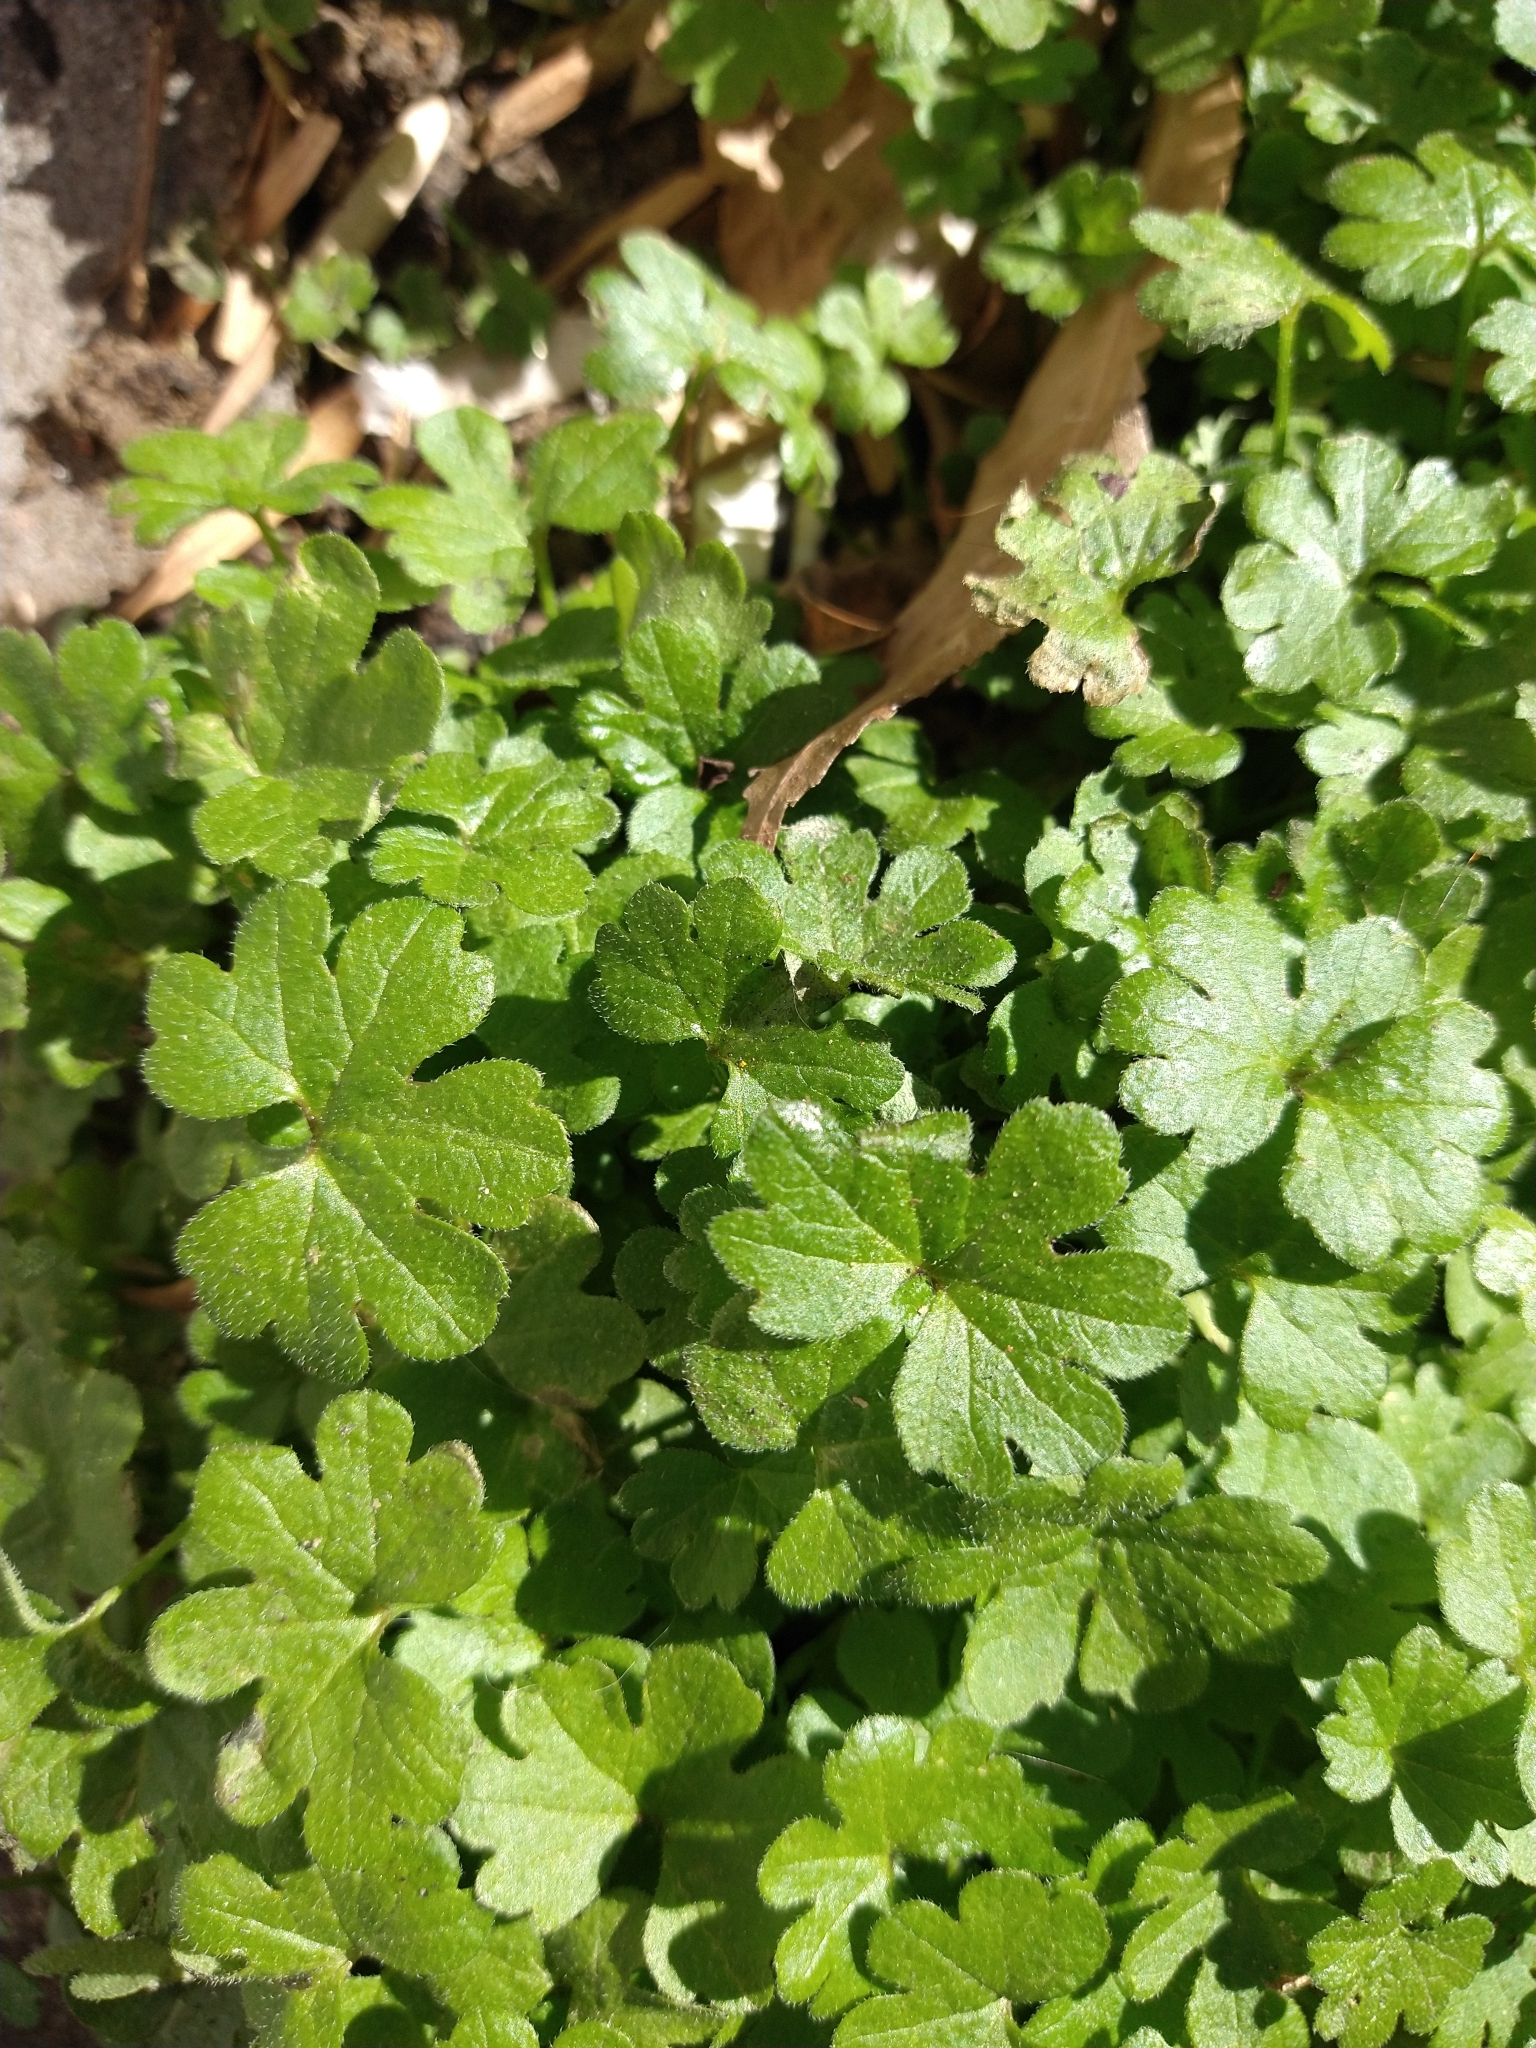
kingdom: Plantae
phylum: Tracheophyta
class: Magnoliopsida
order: Apiales
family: Apiaceae
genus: Bowlesia
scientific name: Bowlesia incana
